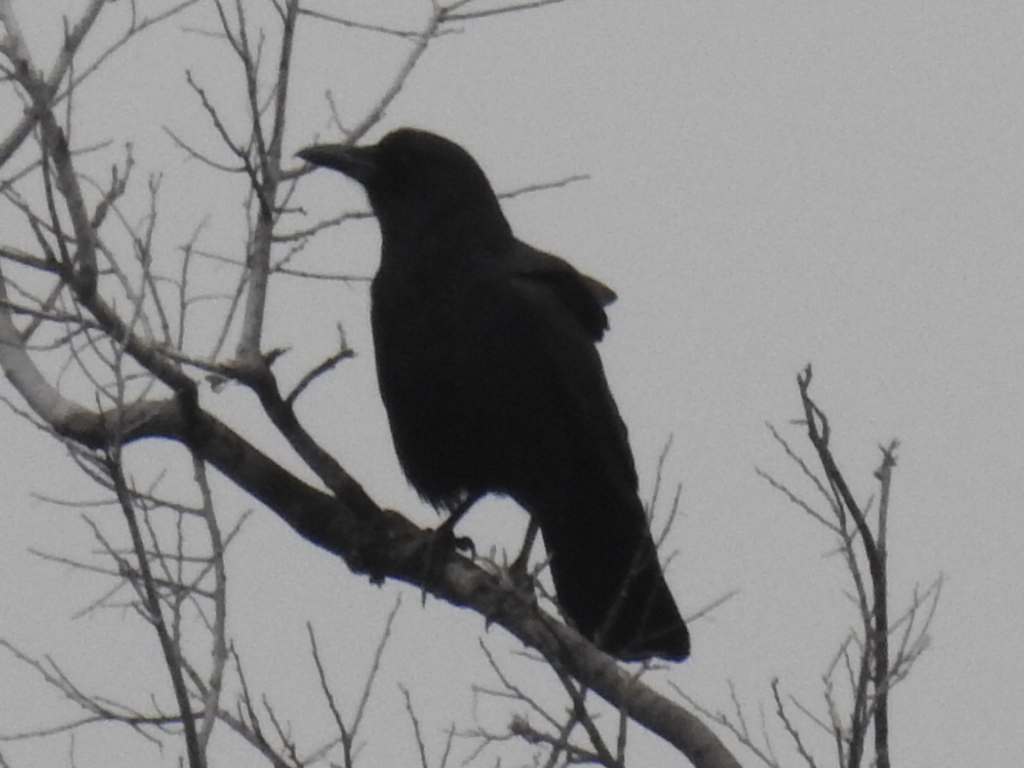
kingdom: Animalia
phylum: Chordata
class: Aves
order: Passeriformes
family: Corvidae
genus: Corvus
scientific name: Corvus brachyrhynchos
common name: American crow
